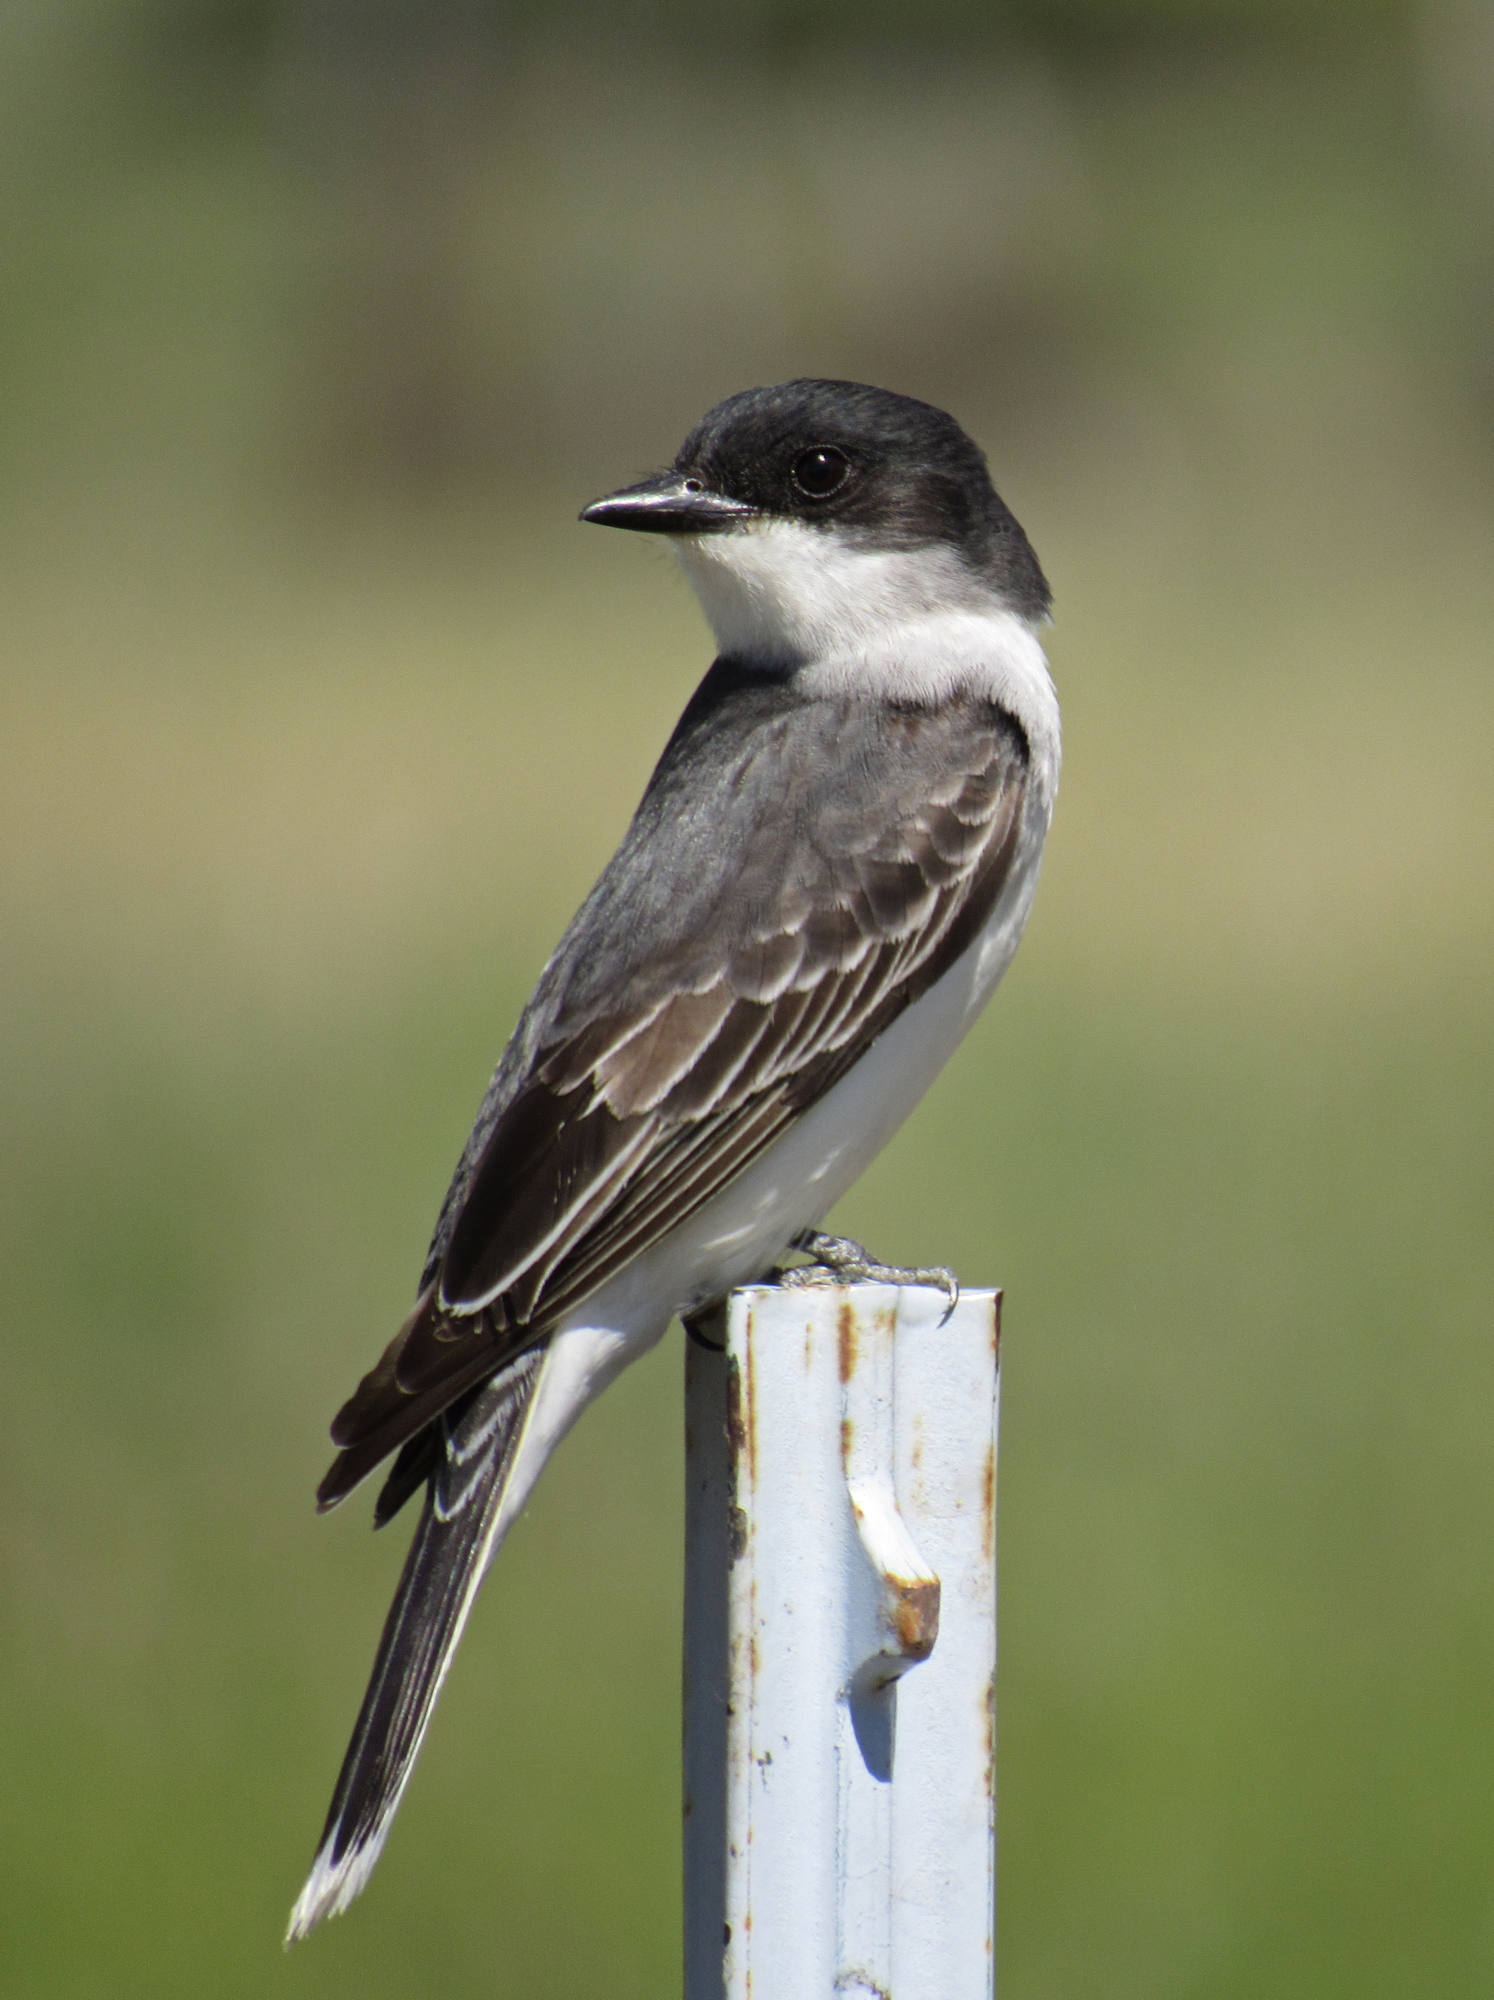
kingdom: Animalia
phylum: Chordata
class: Aves
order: Passeriformes
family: Tyrannidae
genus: Tyrannus
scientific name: Tyrannus tyrannus
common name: Eastern kingbird
